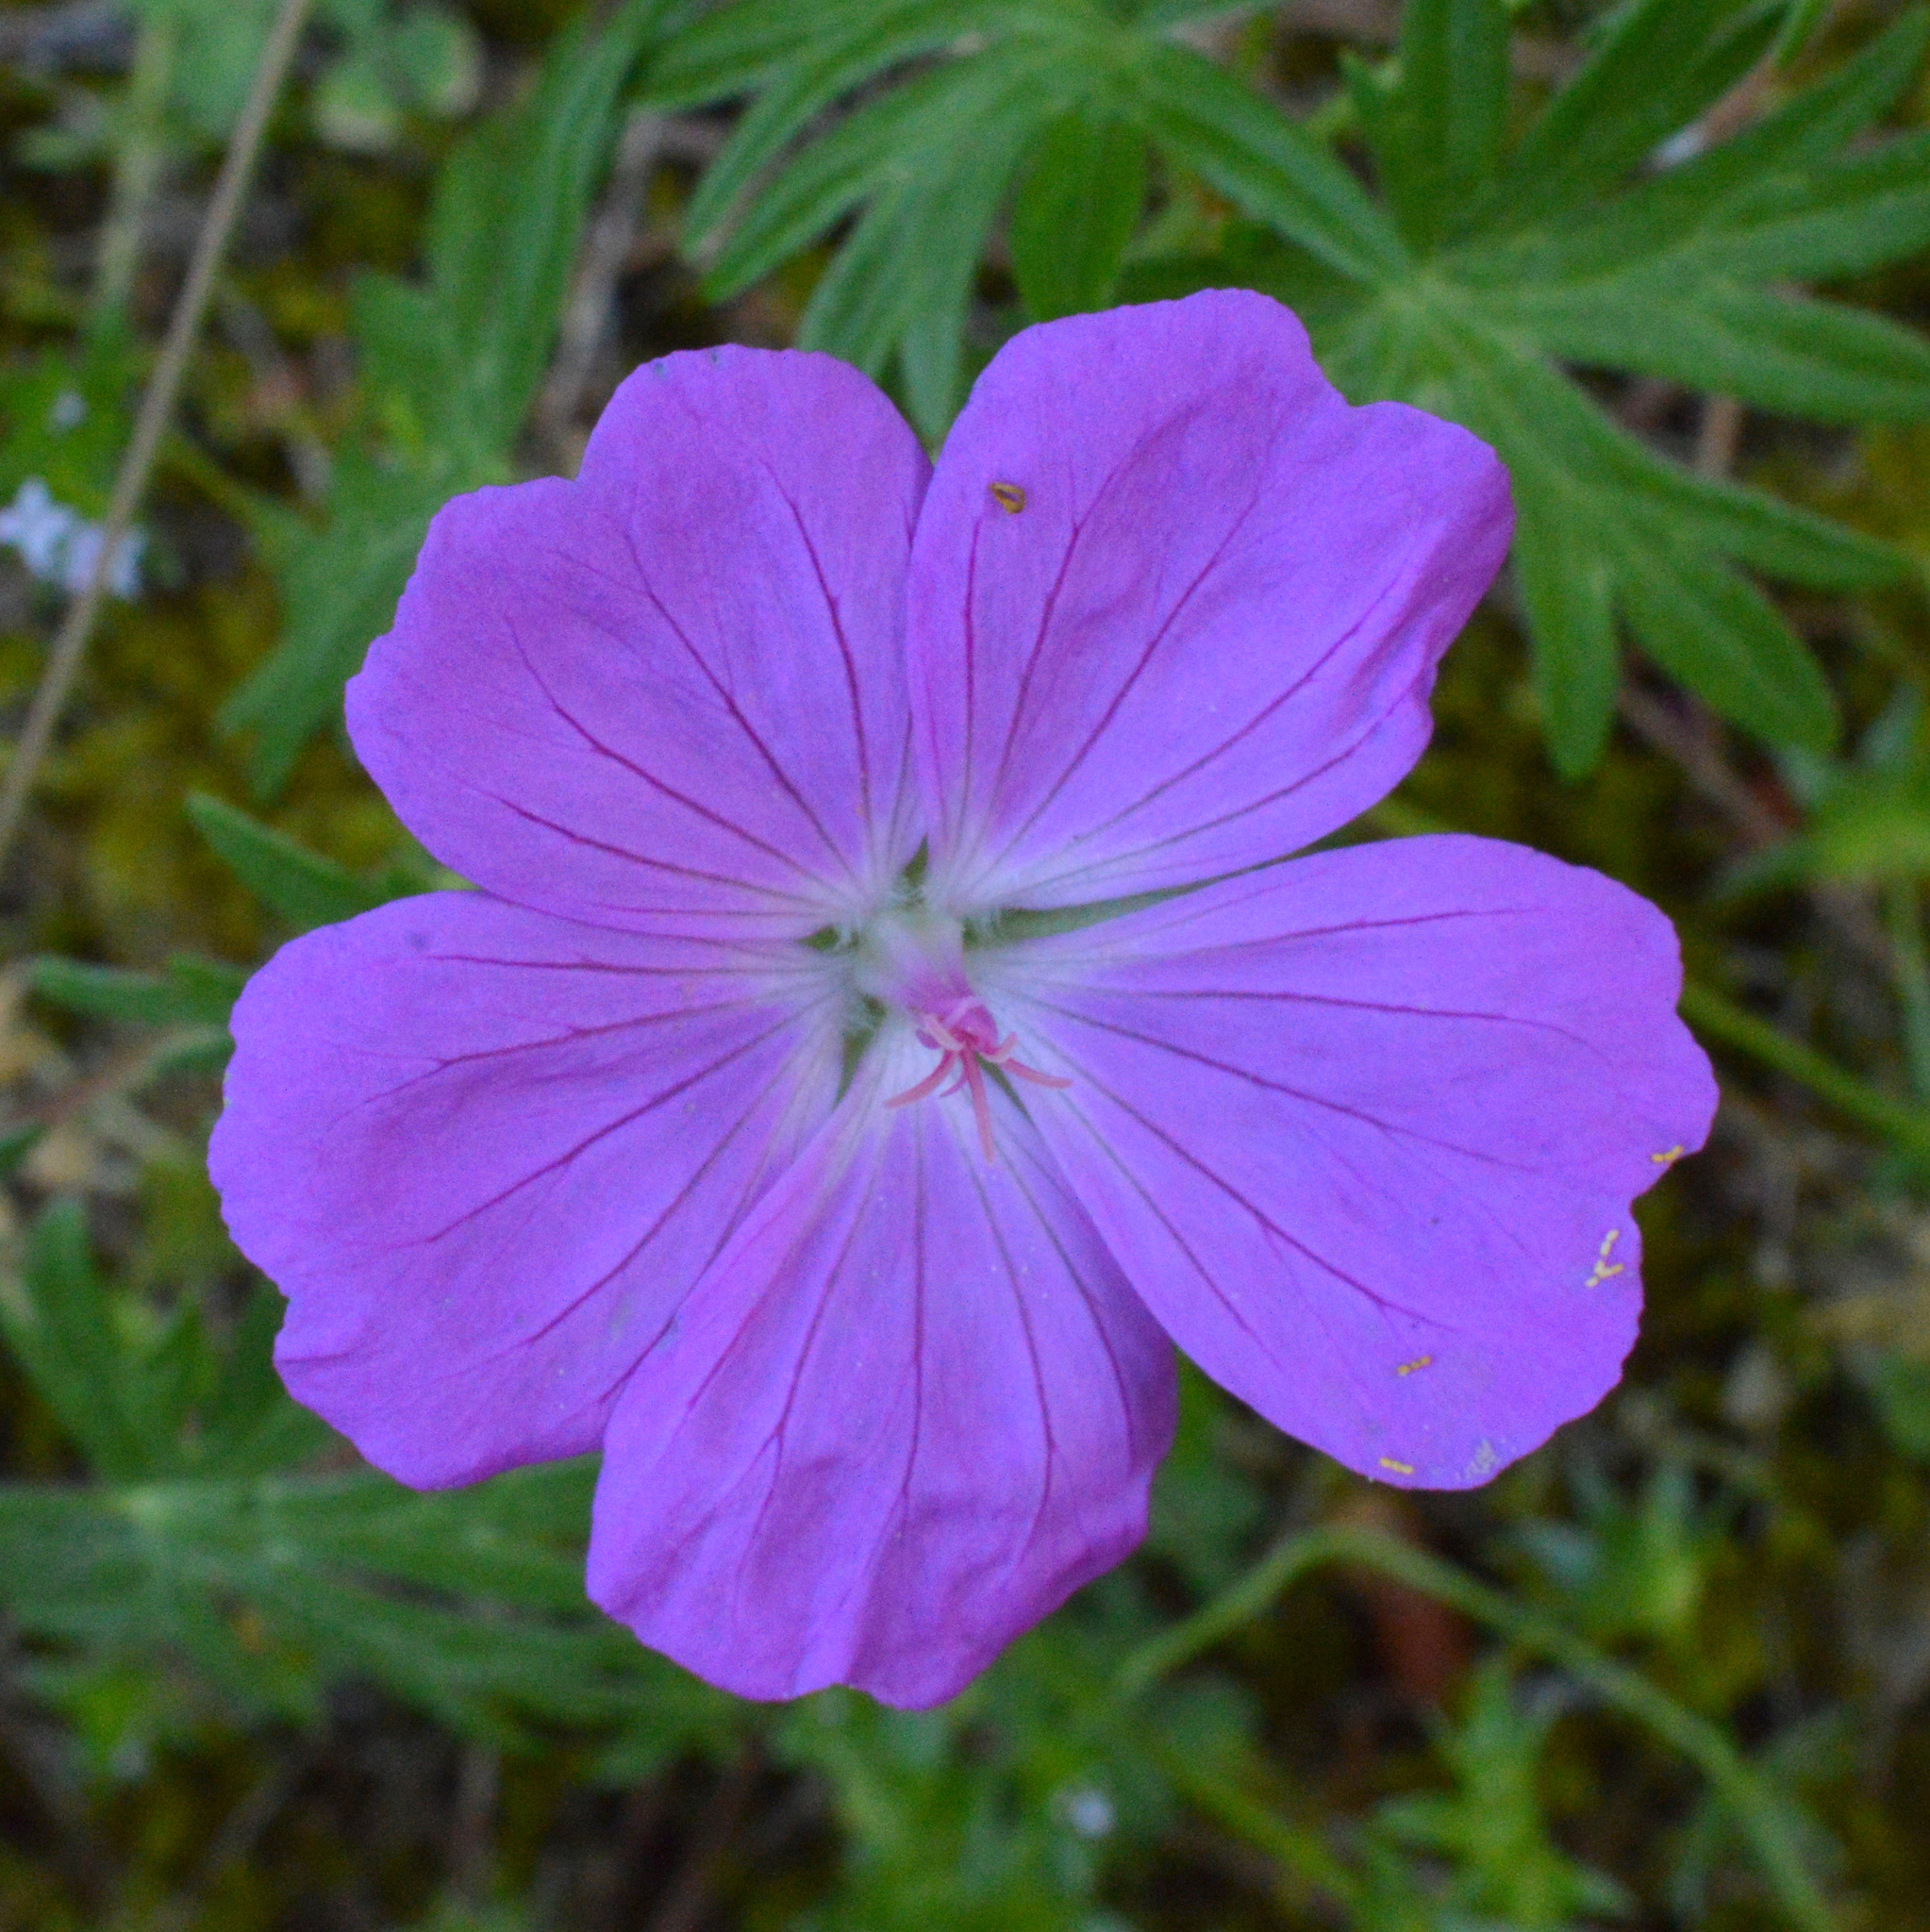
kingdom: Plantae
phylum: Tracheophyta
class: Magnoliopsida
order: Geraniales
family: Geraniaceae
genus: Geranium
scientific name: Geranium sanguineum
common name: Bloody crane's-bill
